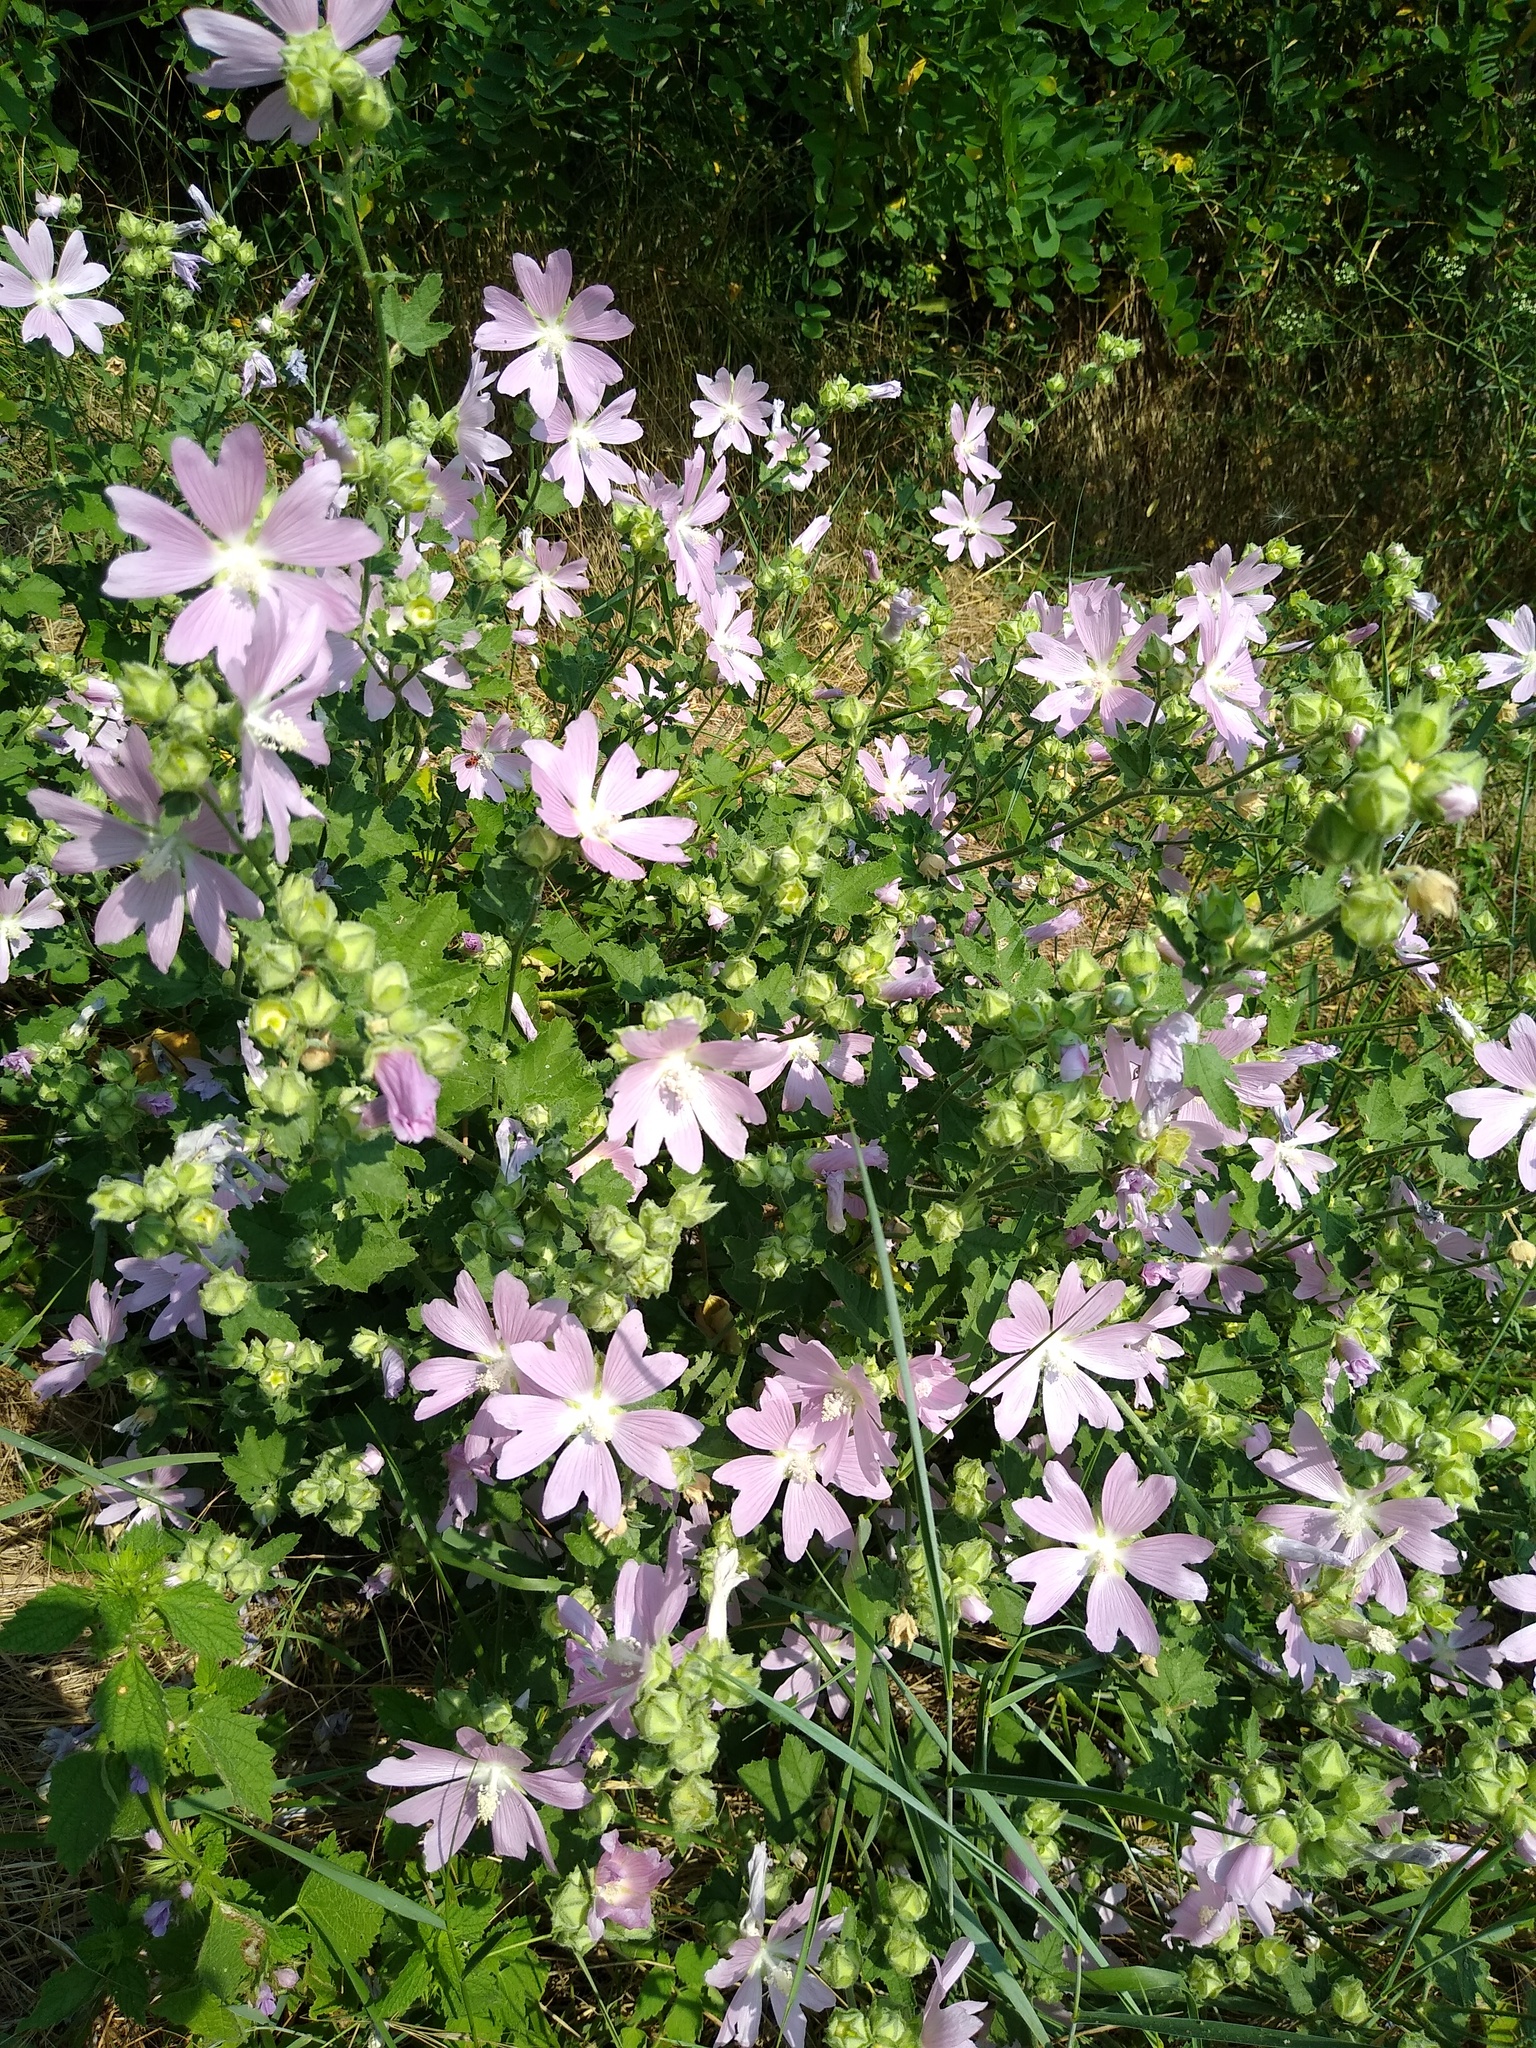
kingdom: Plantae
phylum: Tracheophyta
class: Magnoliopsida
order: Malvales
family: Malvaceae
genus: Malva
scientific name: Malva thuringiaca
